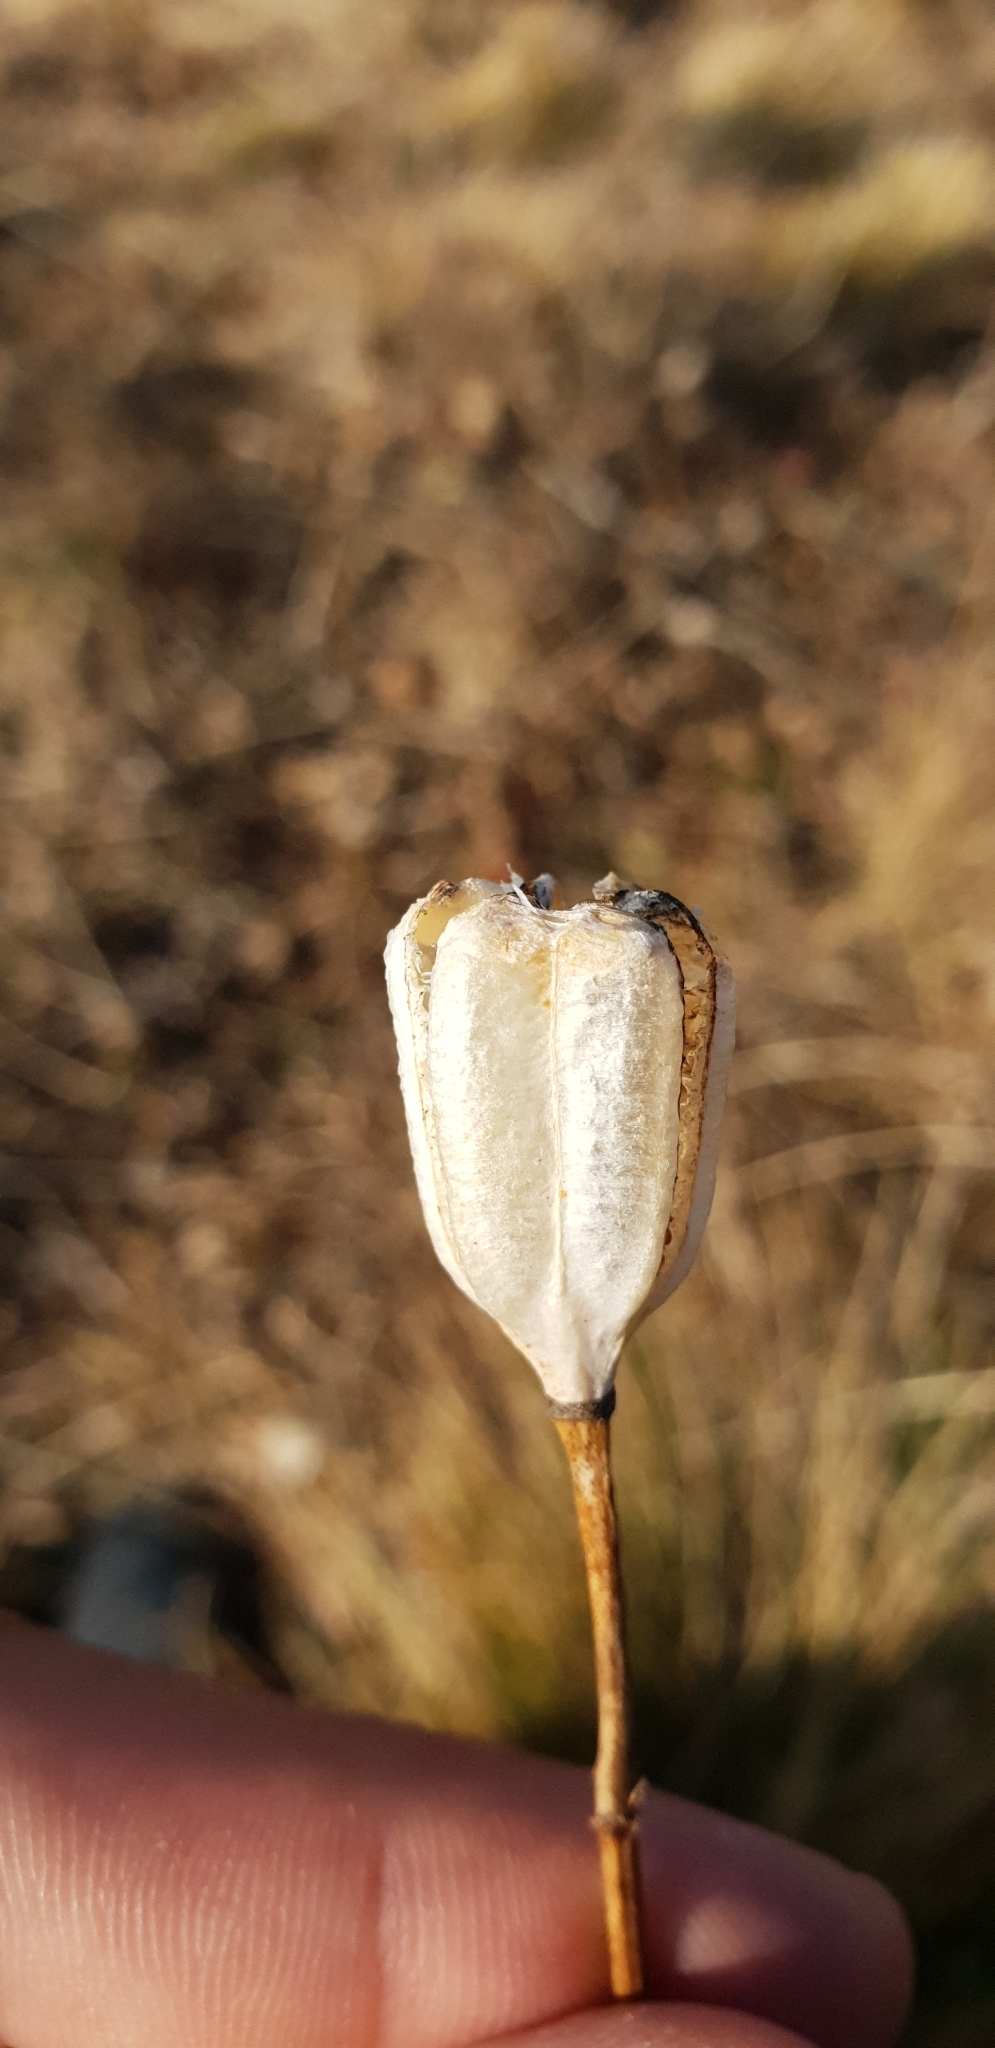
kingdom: Plantae
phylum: Tracheophyta
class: Liliopsida
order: Liliales
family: Liliaceae
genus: Fritillaria
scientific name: Fritillaria collina
